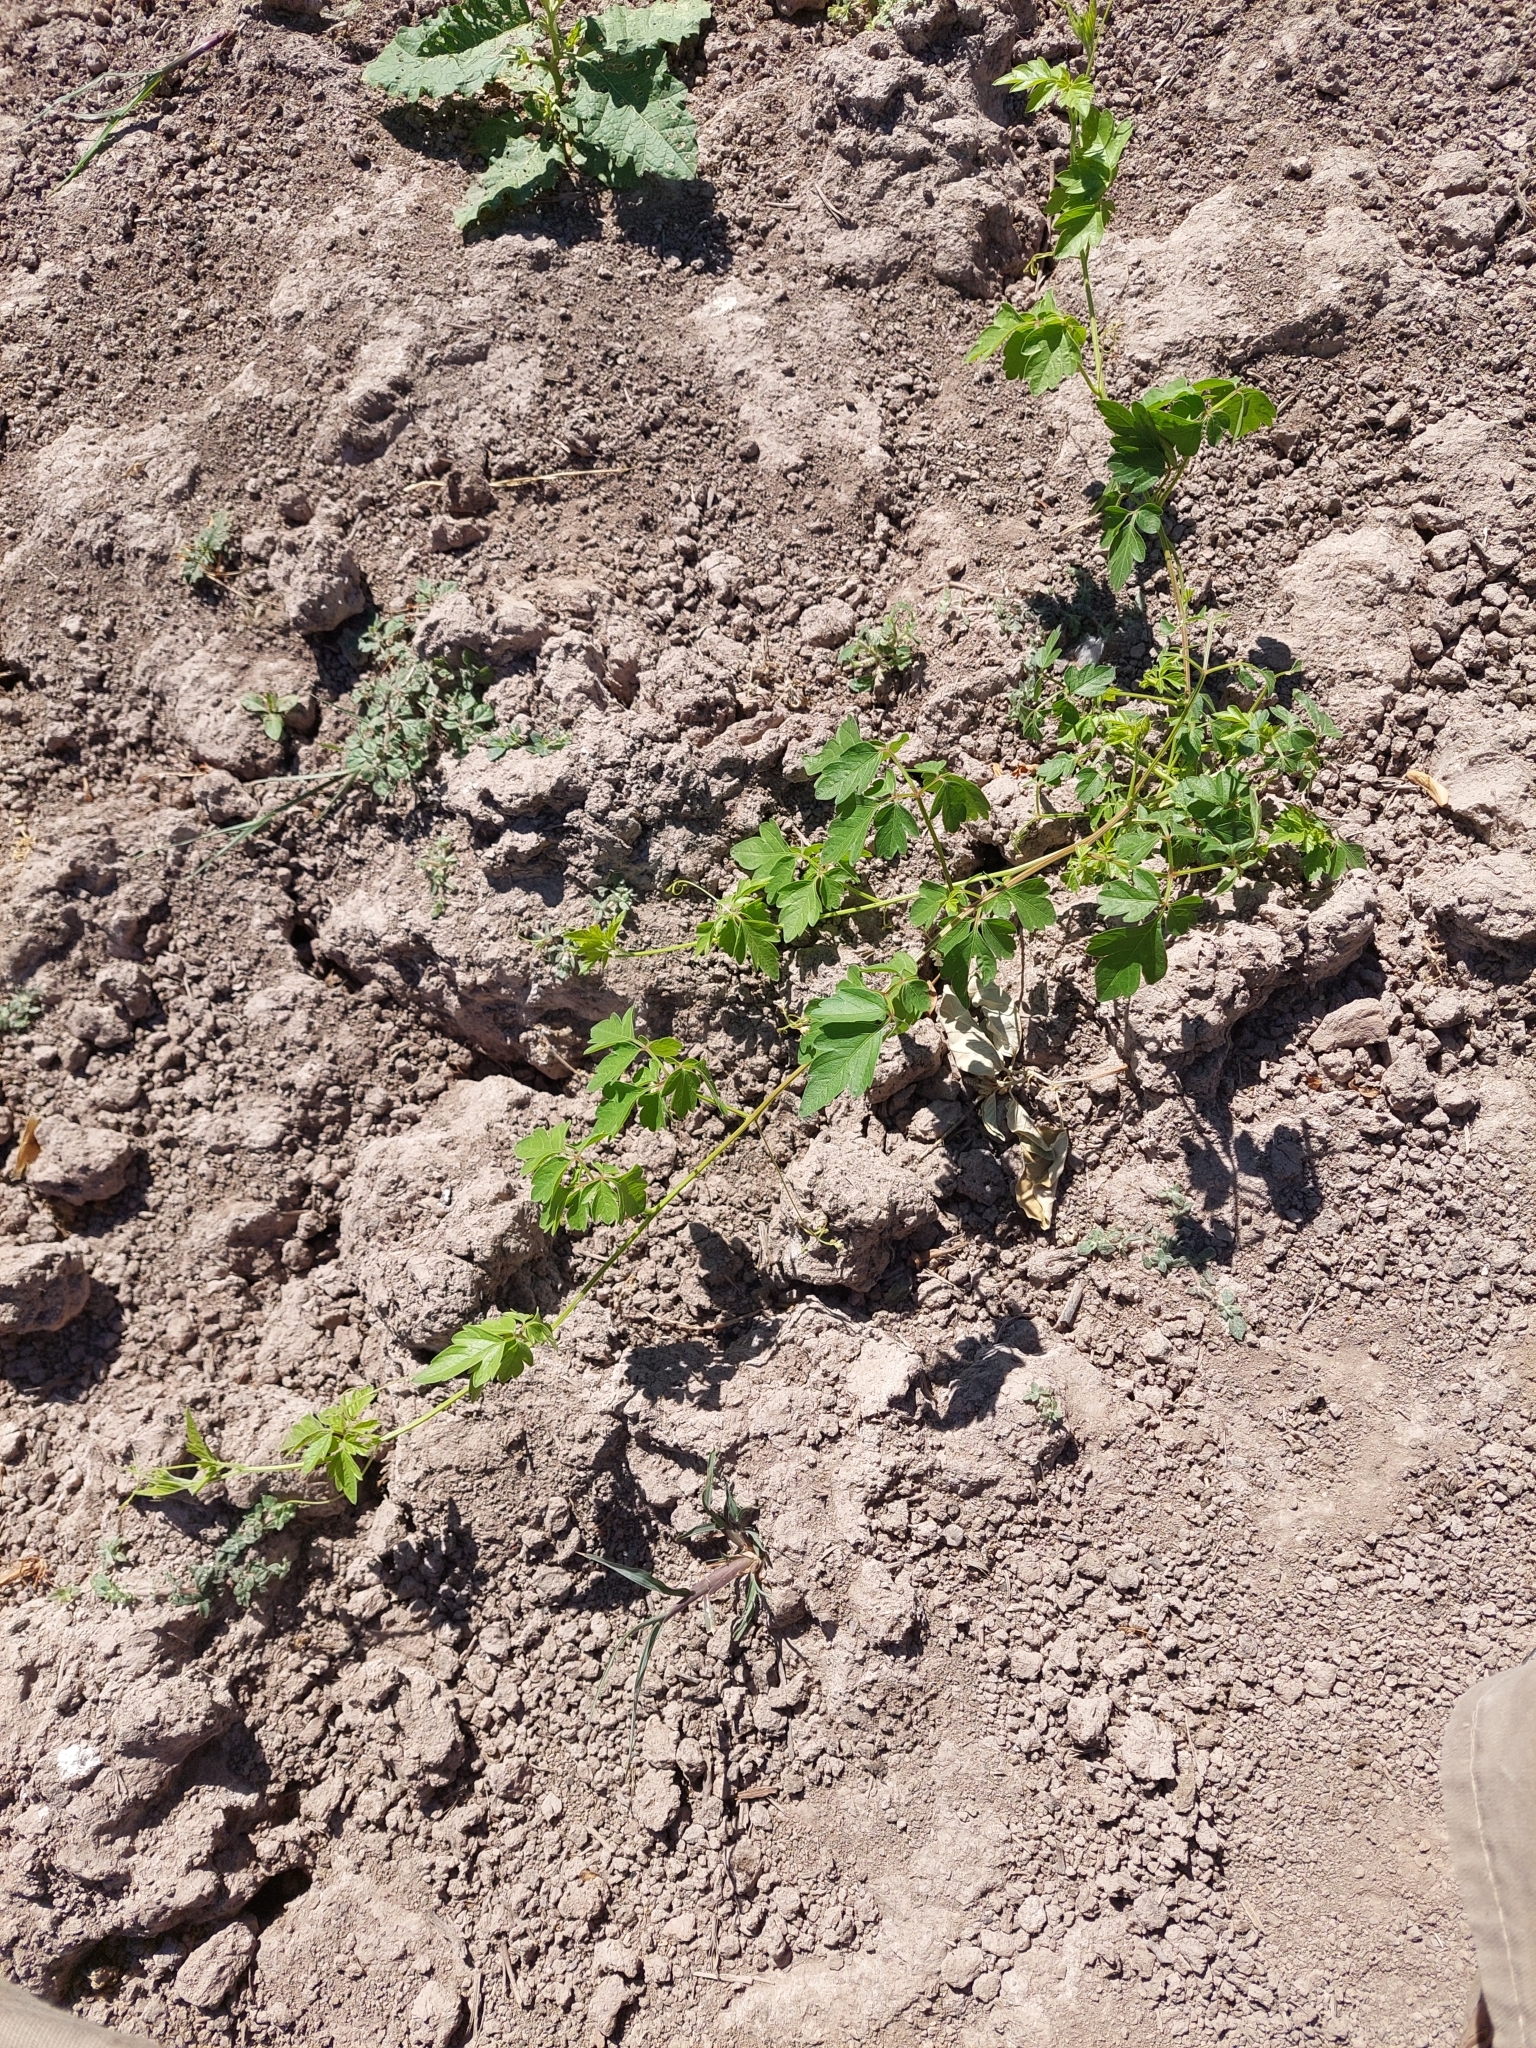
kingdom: Plantae
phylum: Tracheophyta
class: Magnoliopsida
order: Sapindales
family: Sapindaceae
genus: Cardiospermum
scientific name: Cardiospermum halicacabum
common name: Balloon vine
